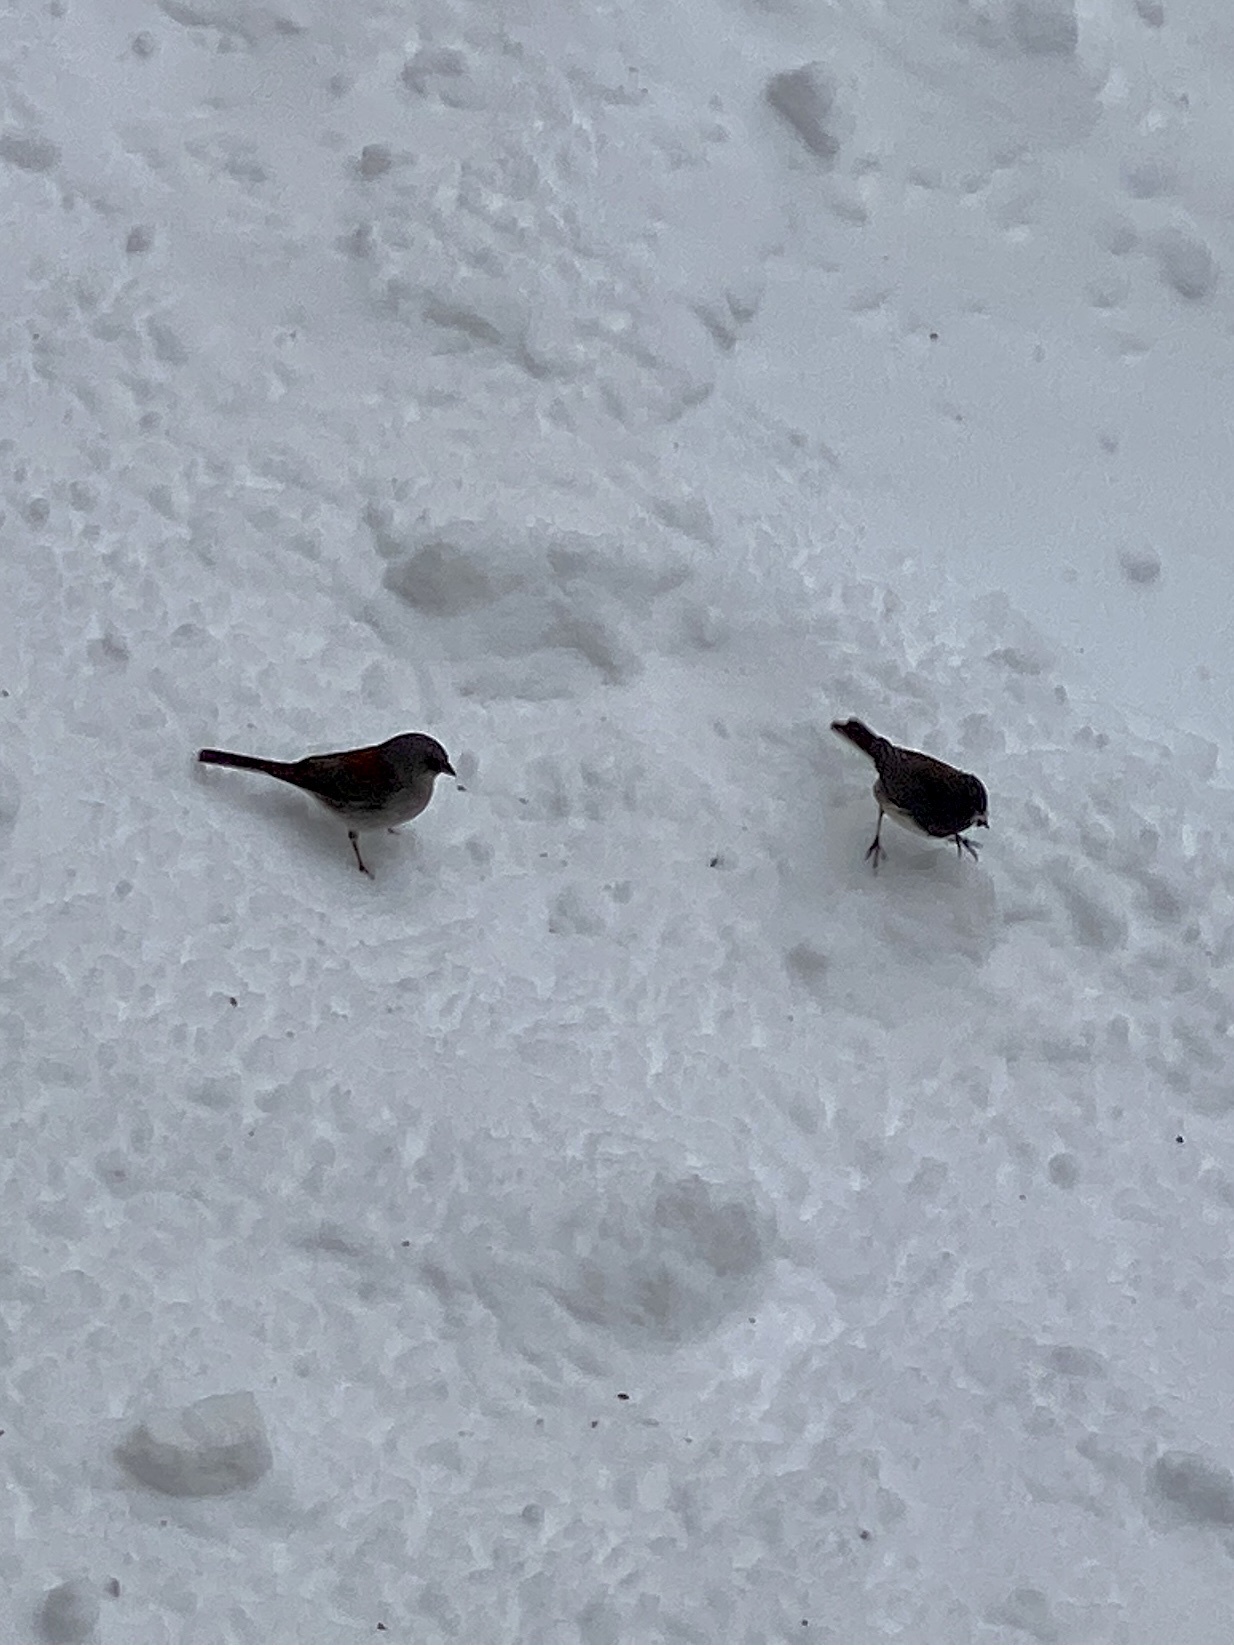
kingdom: Animalia
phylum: Chordata
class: Aves
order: Passeriformes
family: Passerellidae
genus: Junco
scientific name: Junco hyemalis
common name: Dark-eyed junco
